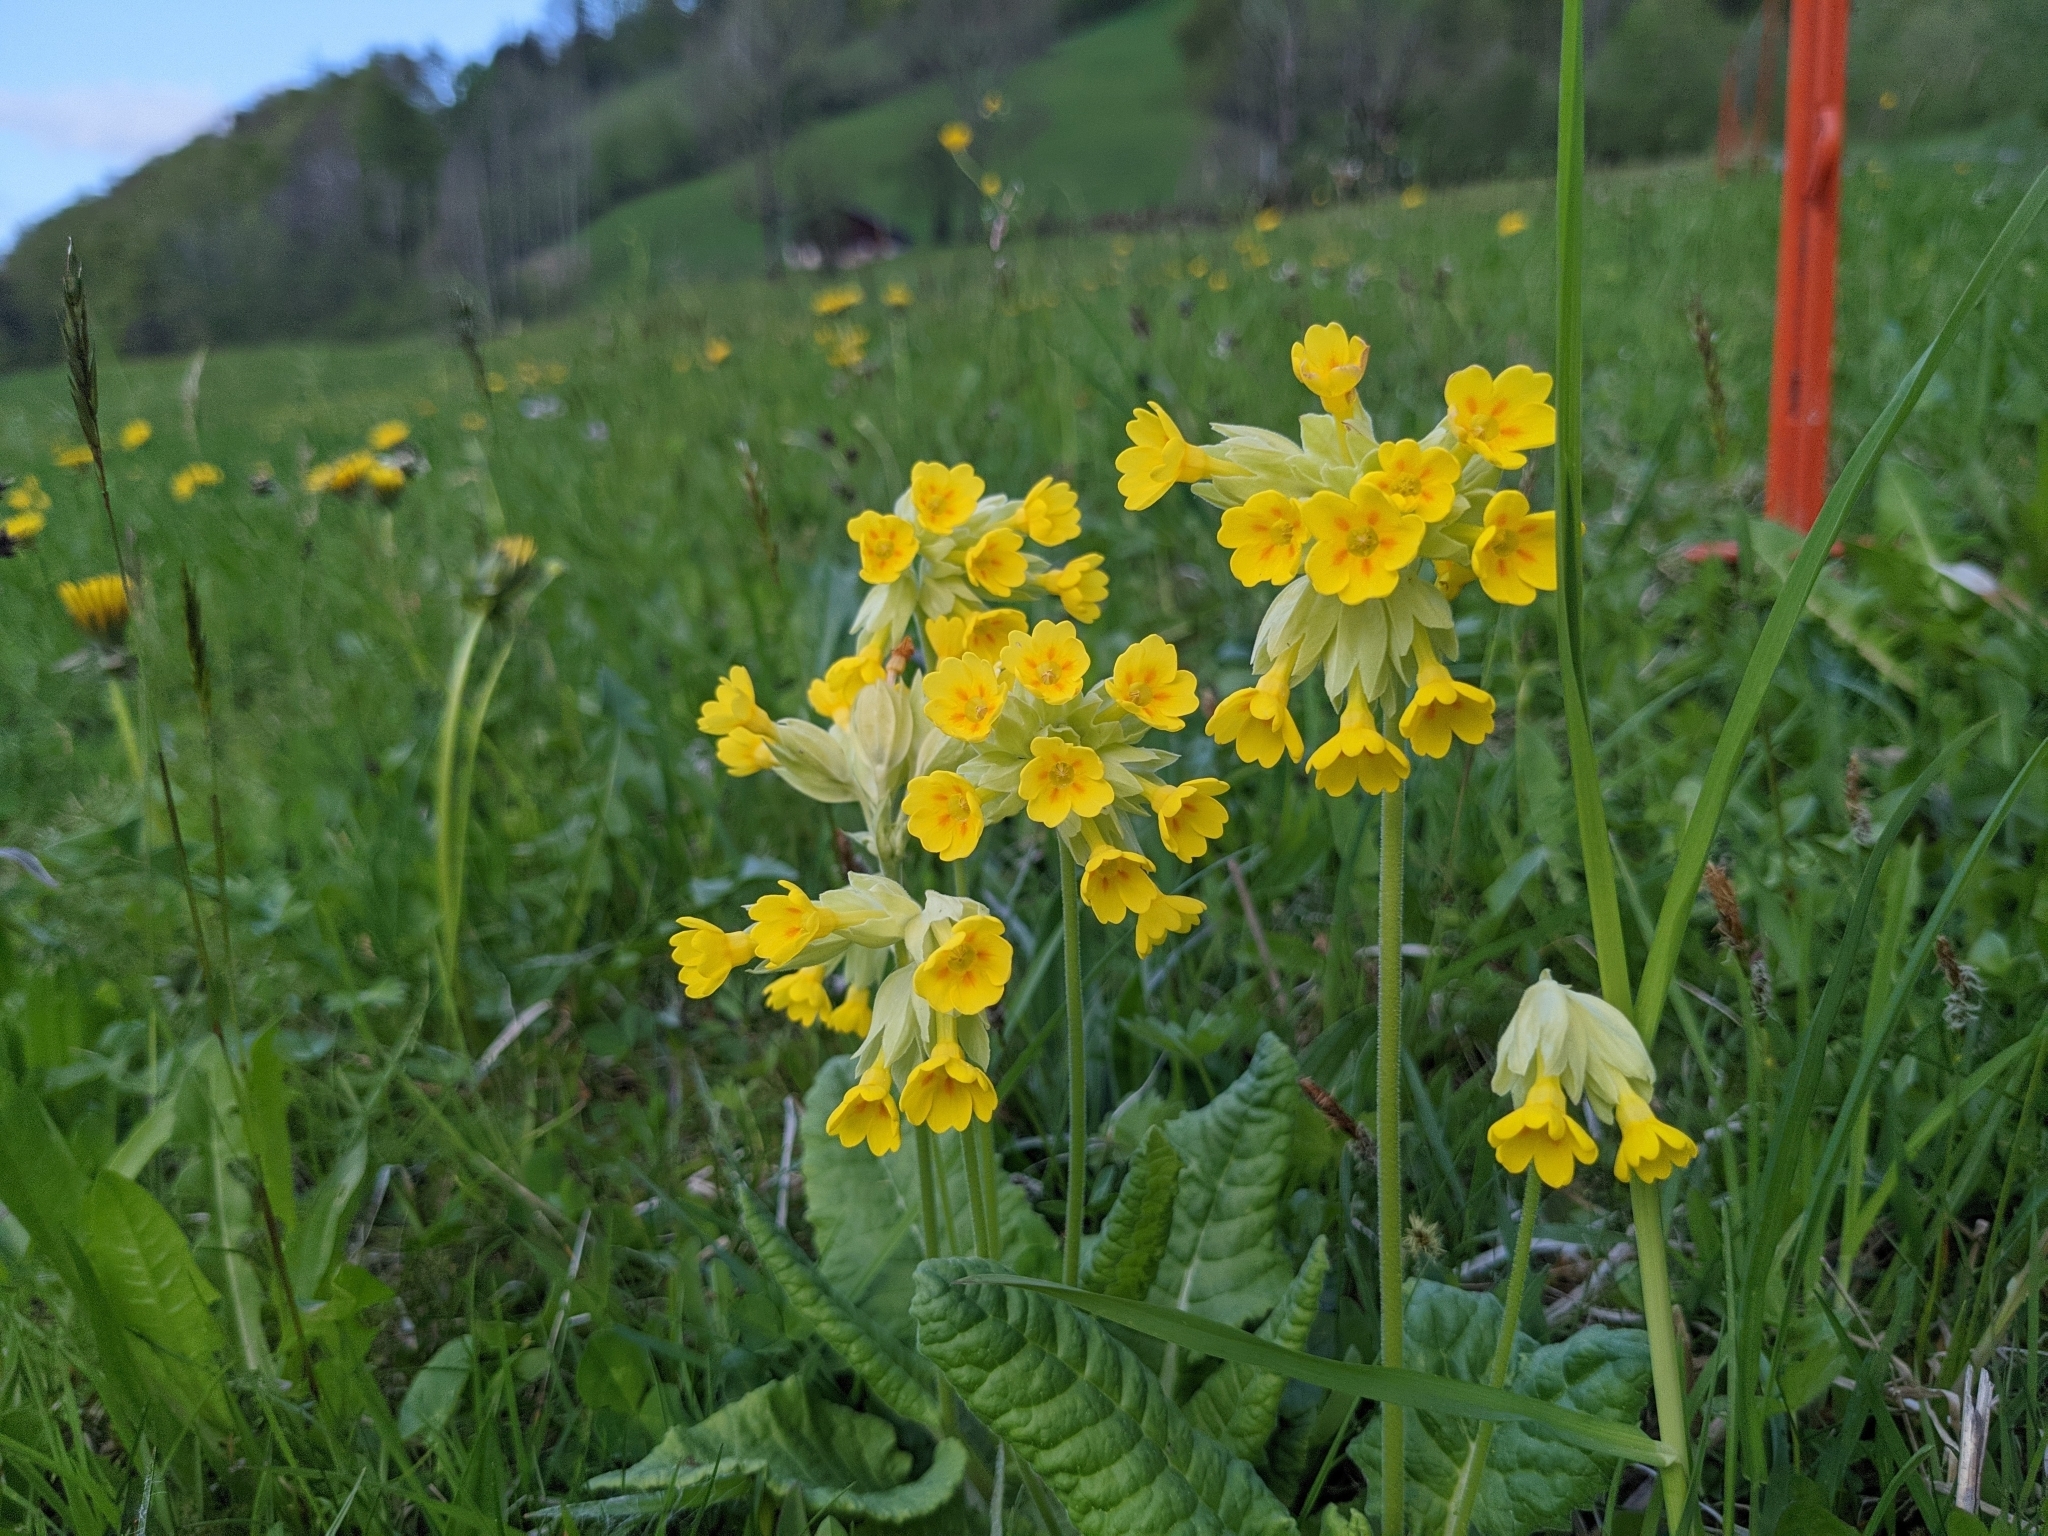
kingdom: Plantae
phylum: Tracheophyta
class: Magnoliopsida
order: Ericales
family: Primulaceae
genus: Primula
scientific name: Primula veris
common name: Cowslip
